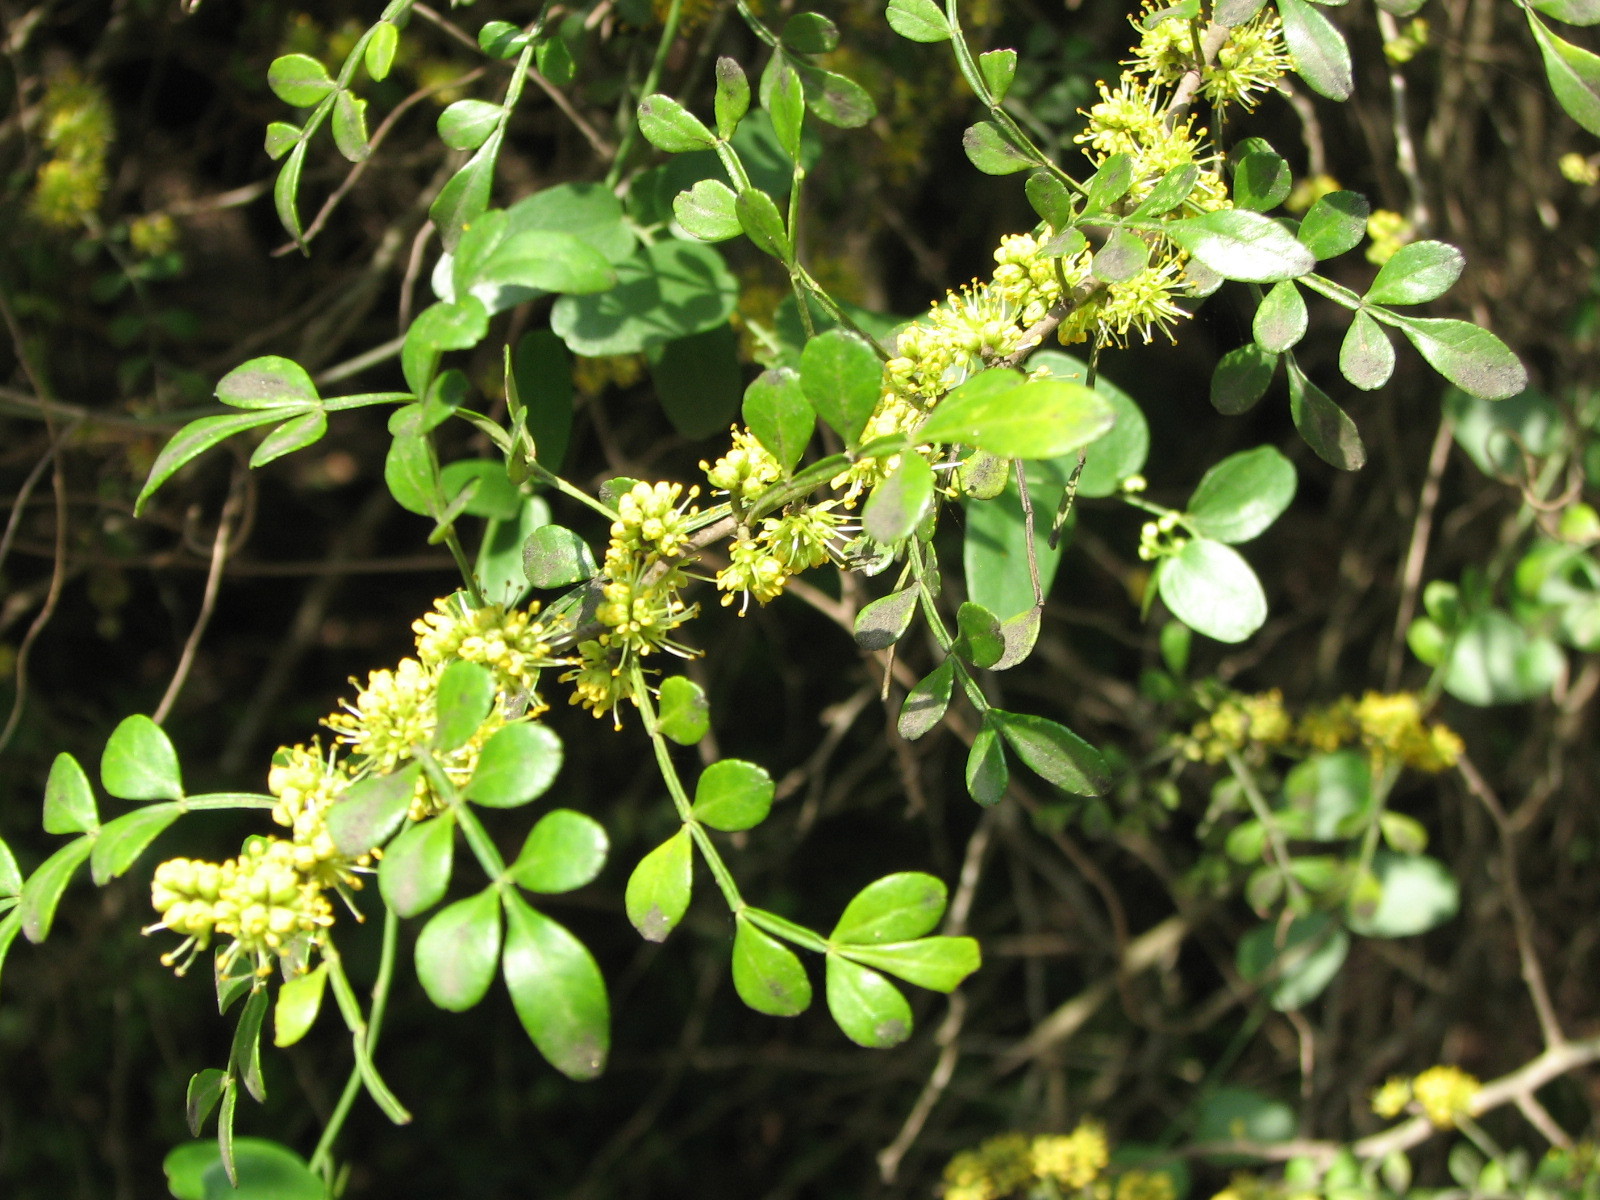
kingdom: Plantae
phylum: Tracheophyta
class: Magnoliopsida
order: Sapindales
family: Rutaceae
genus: Zanthoxylum
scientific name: Zanthoxylum fagara
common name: Lime prickly-ash
